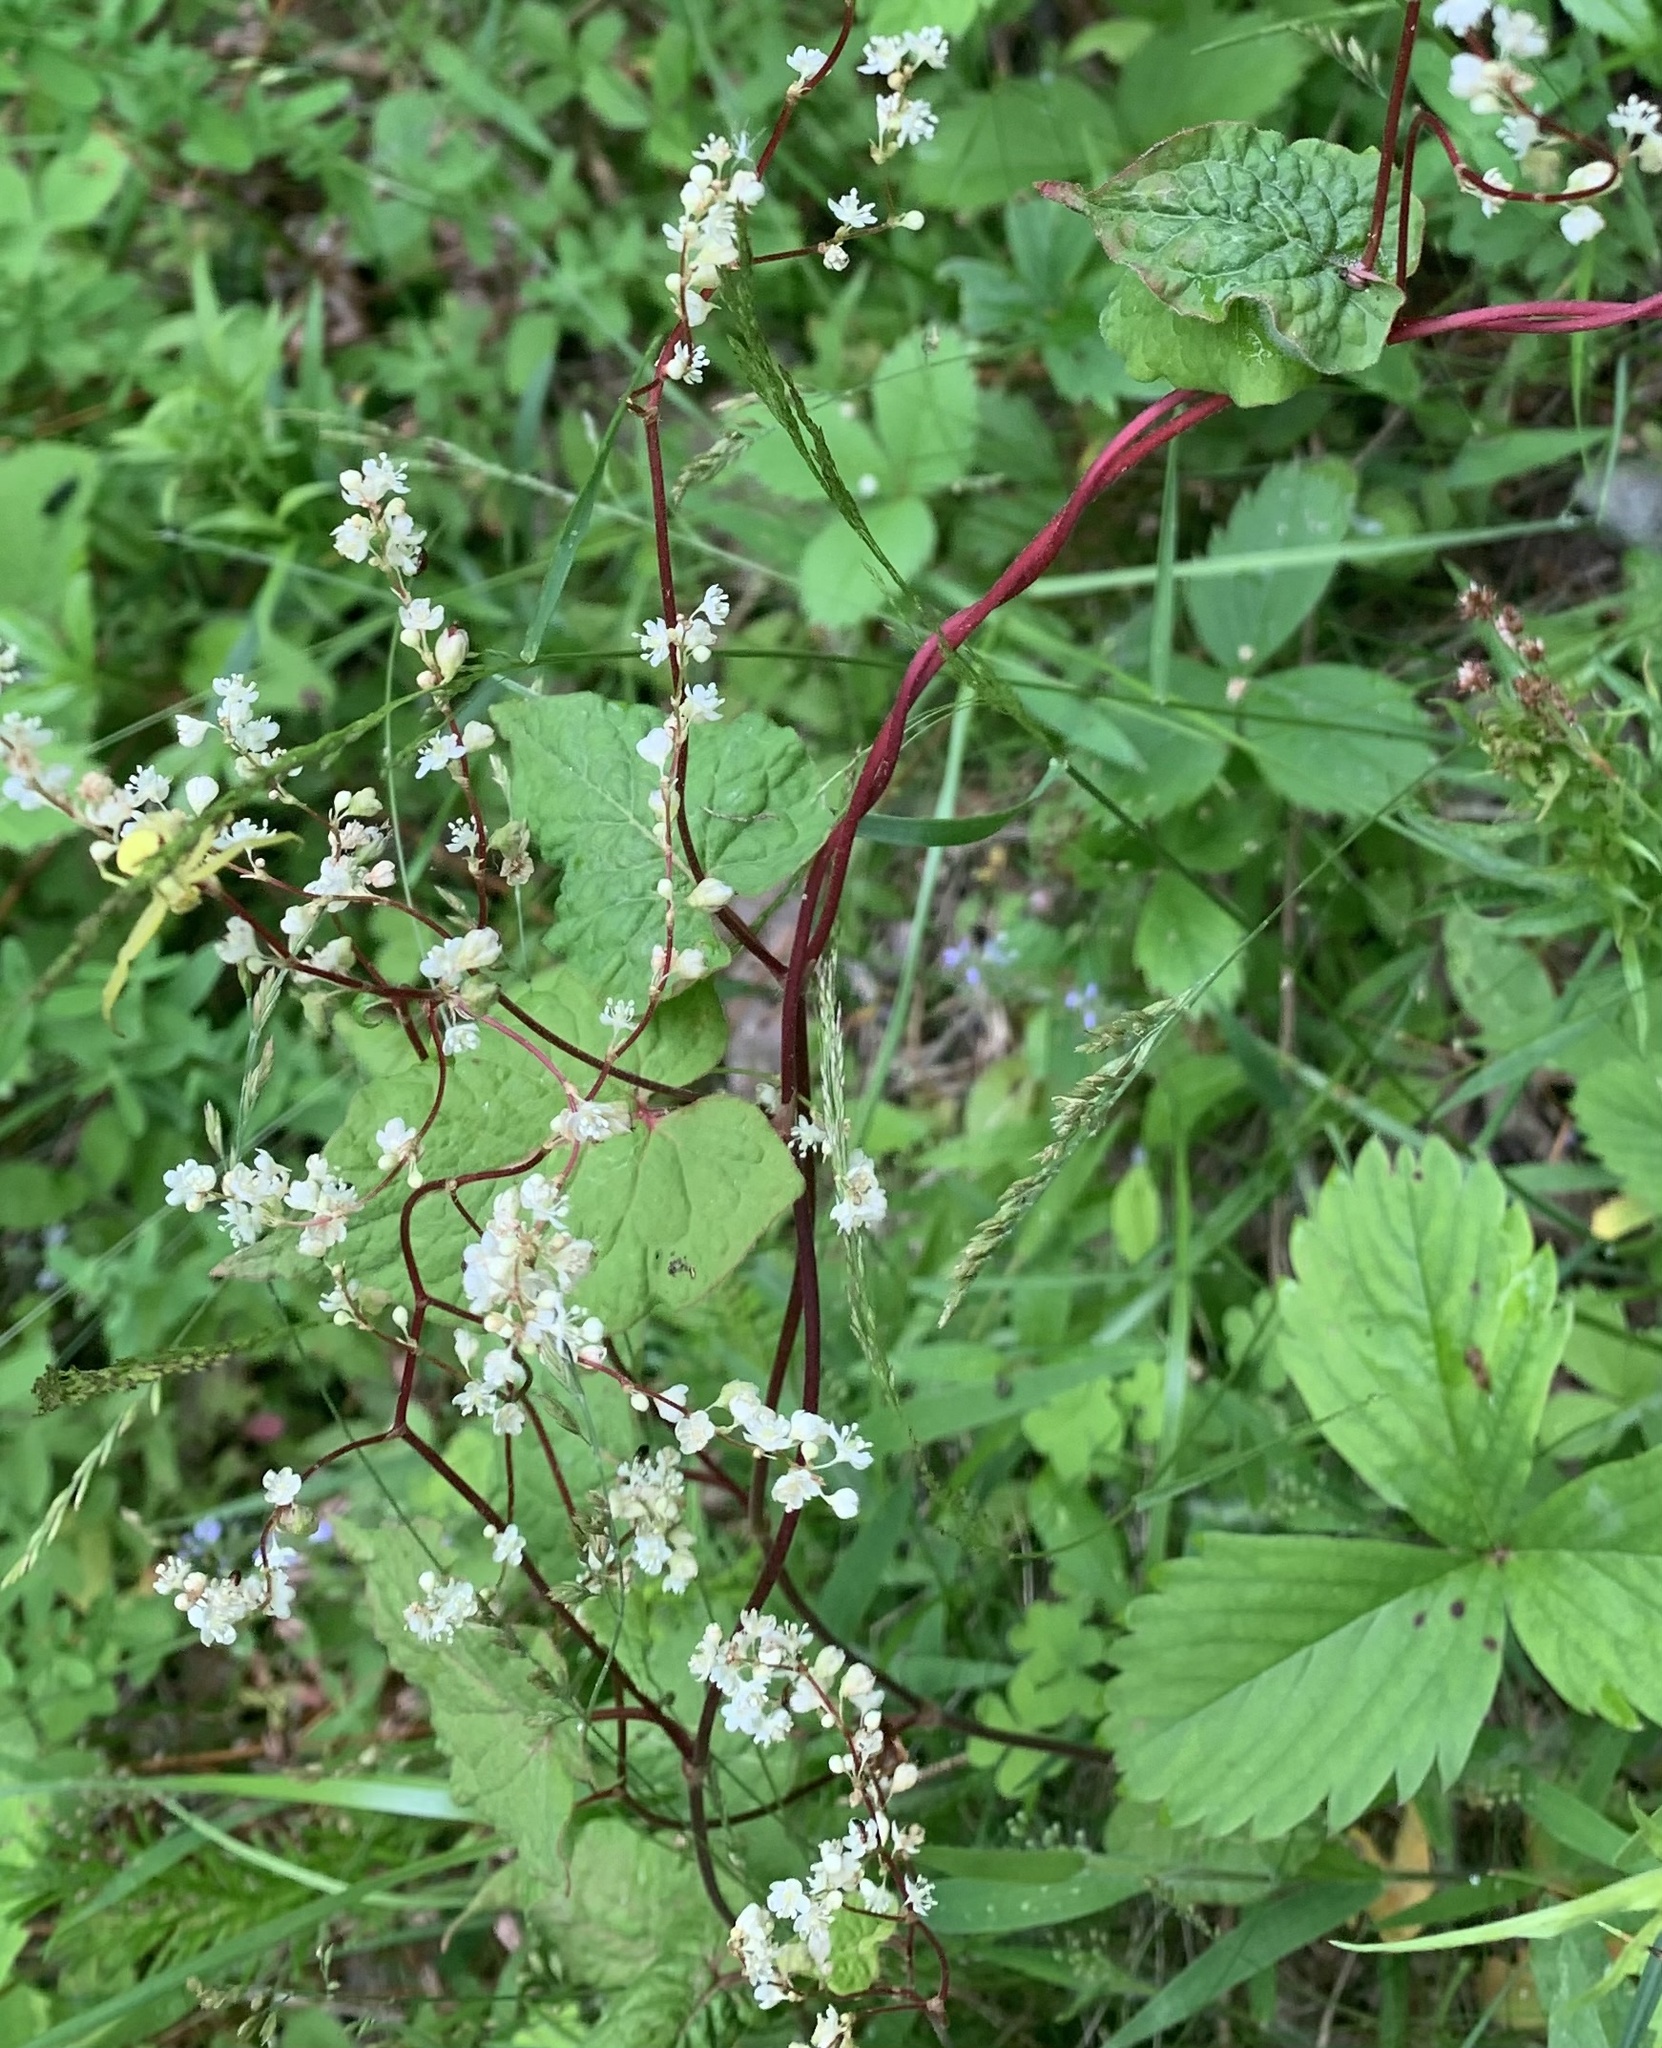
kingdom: Plantae
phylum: Tracheophyta
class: Magnoliopsida
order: Caryophyllales
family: Polygonaceae
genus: Parogonum
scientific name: Parogonum ciliinode
